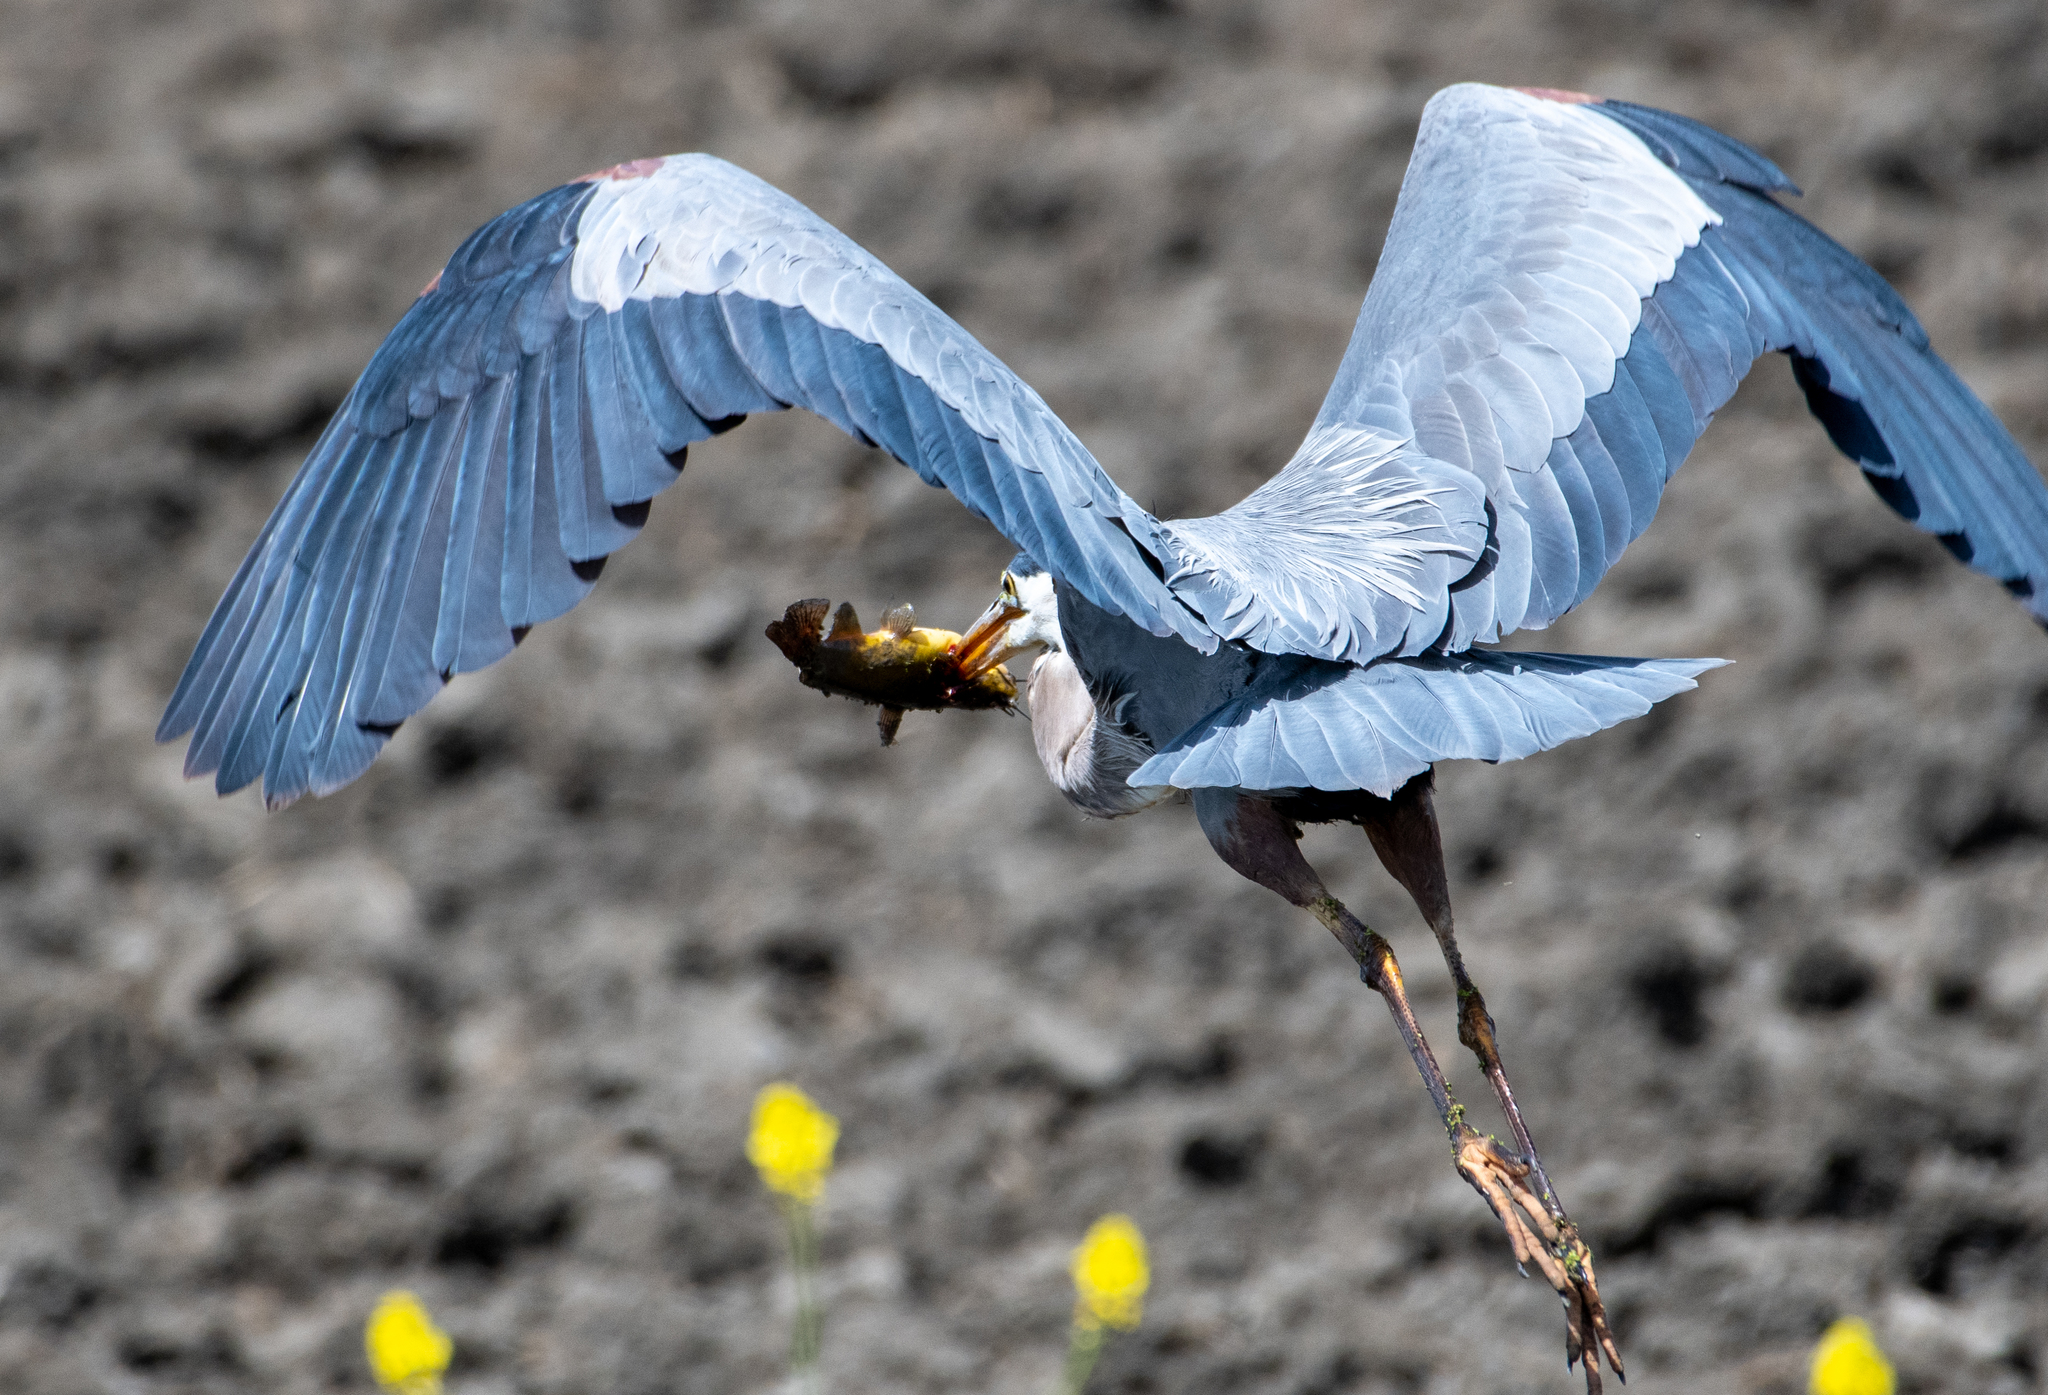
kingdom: Animalia
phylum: Chordata
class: Aves
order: Pelecaniformes
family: Ardeidae
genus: Ardea
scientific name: Ardea herodias
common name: Great blue heron
